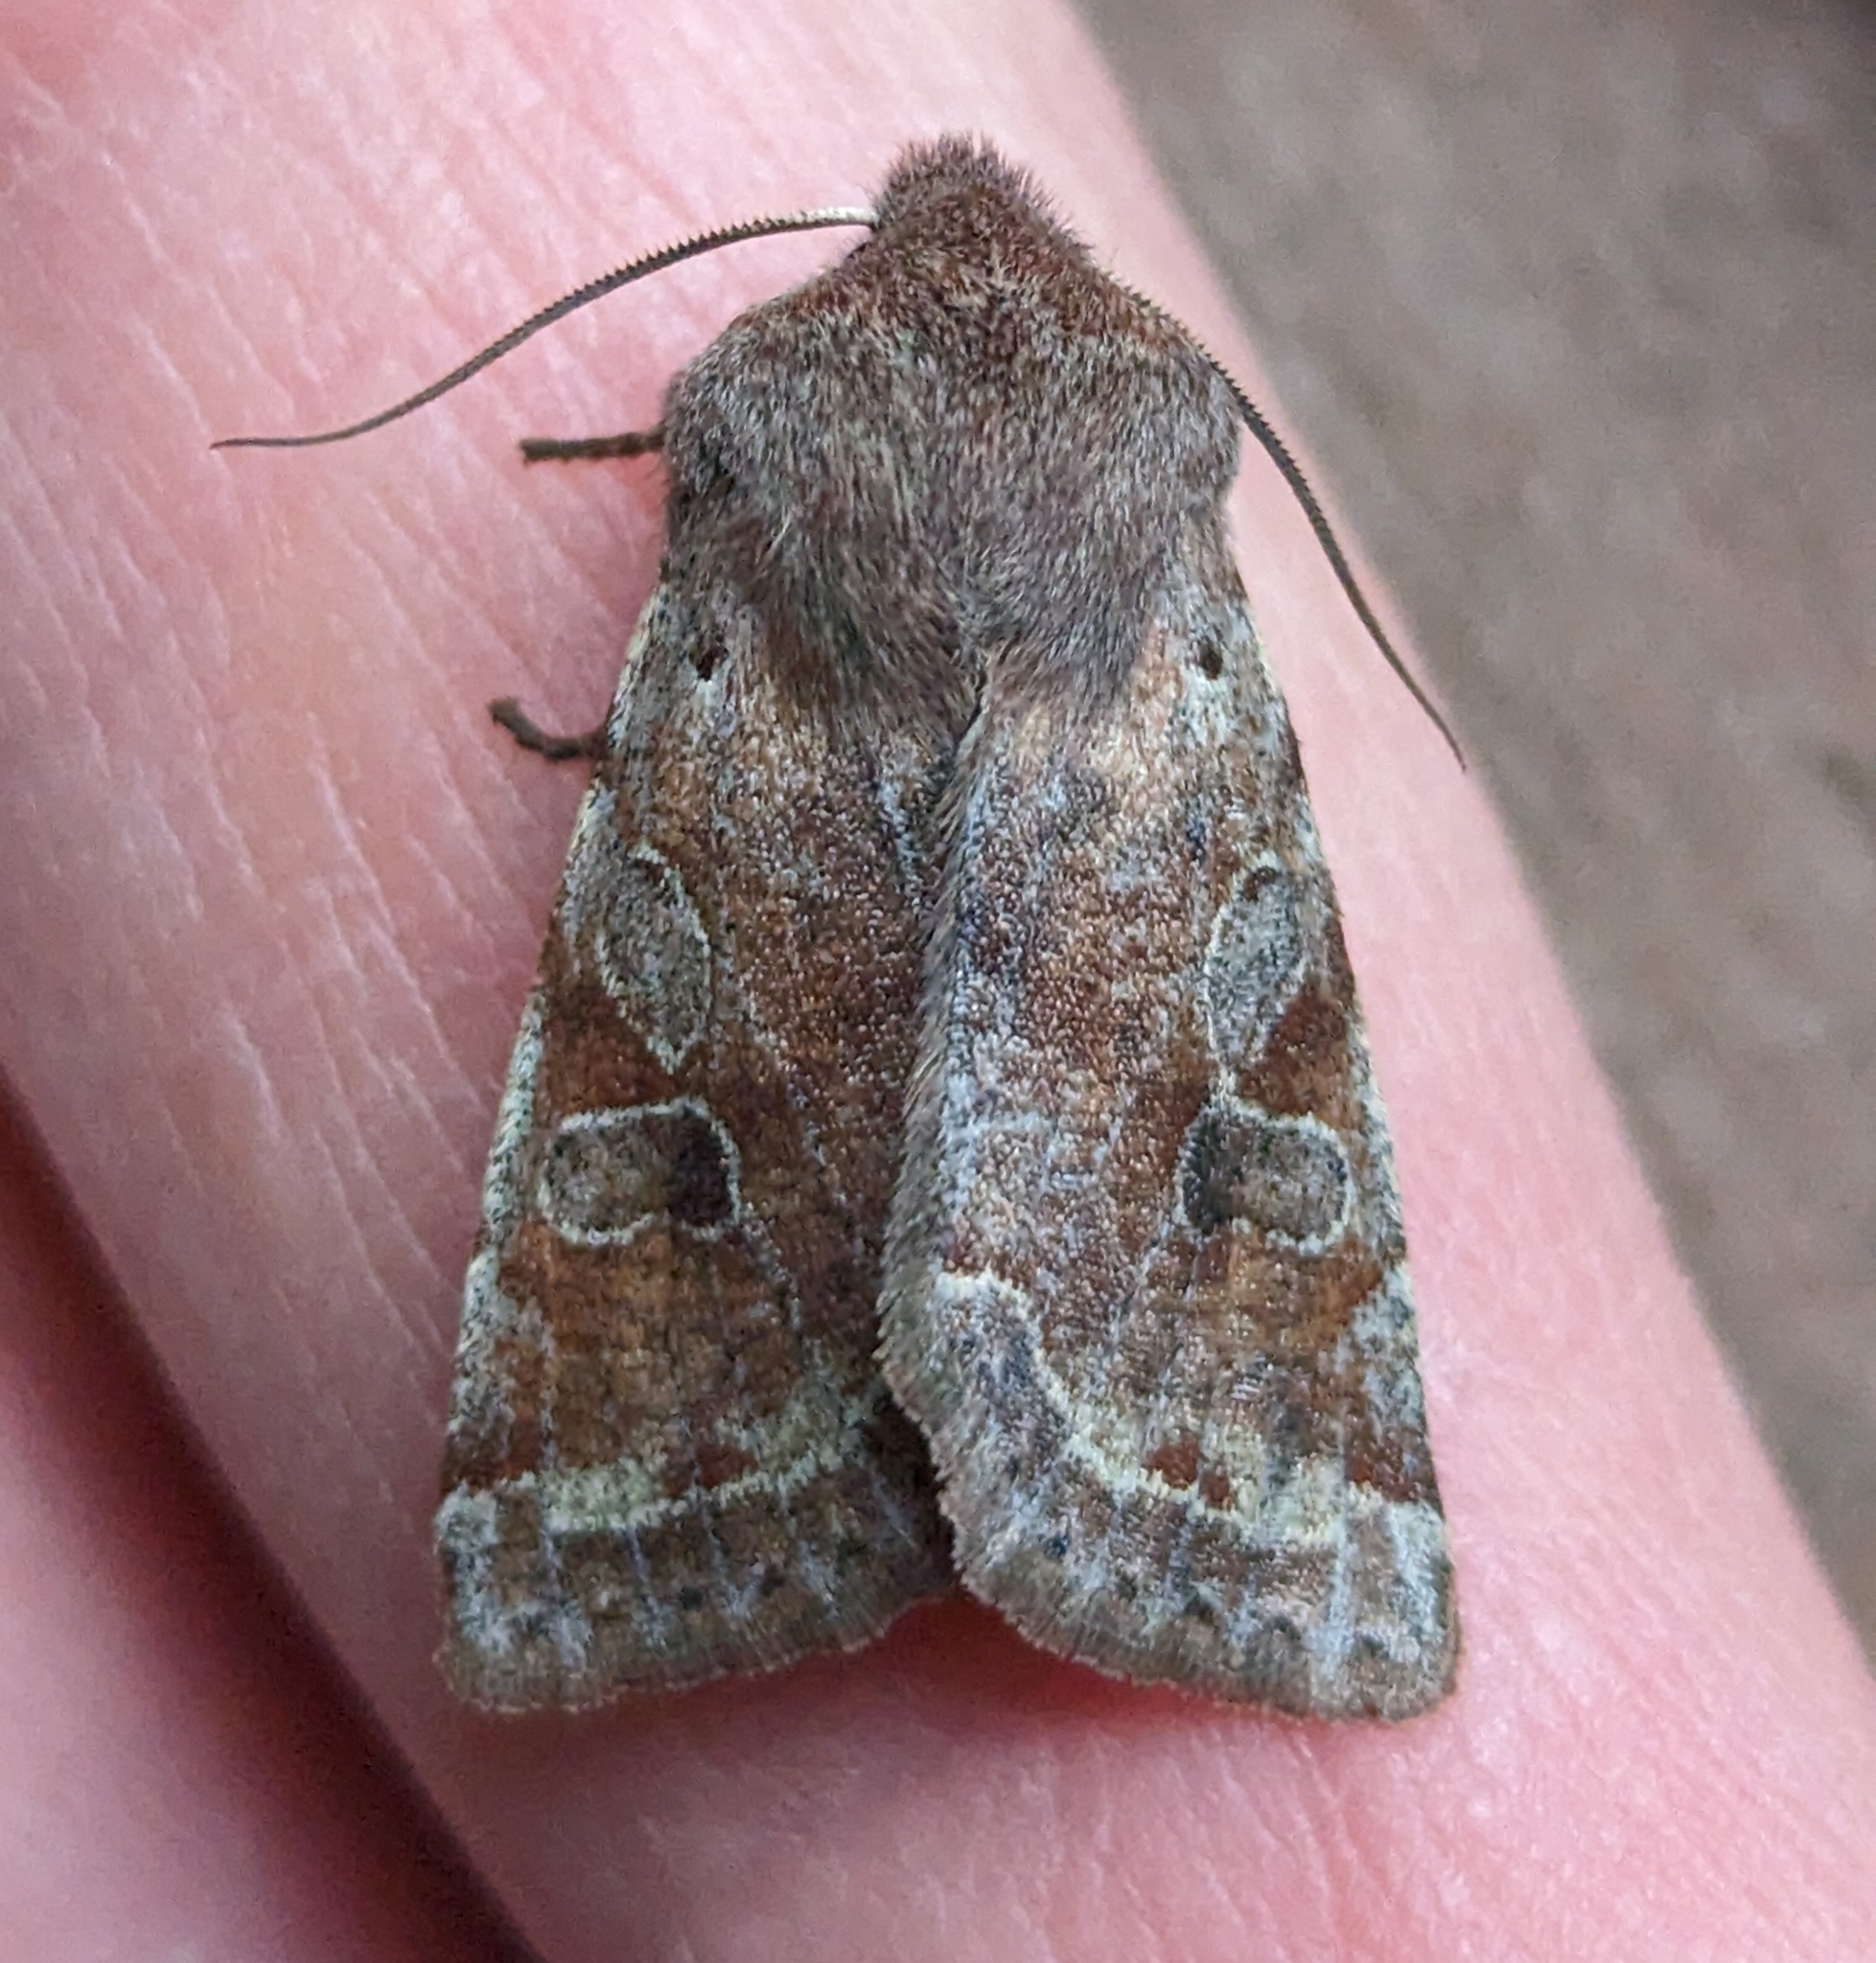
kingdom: Animalia
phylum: Arthropoda
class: Insecta
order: Lepidoptera
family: Noctuidae
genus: Orthosia
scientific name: Orthosia hibisci
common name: Green fruitworm
